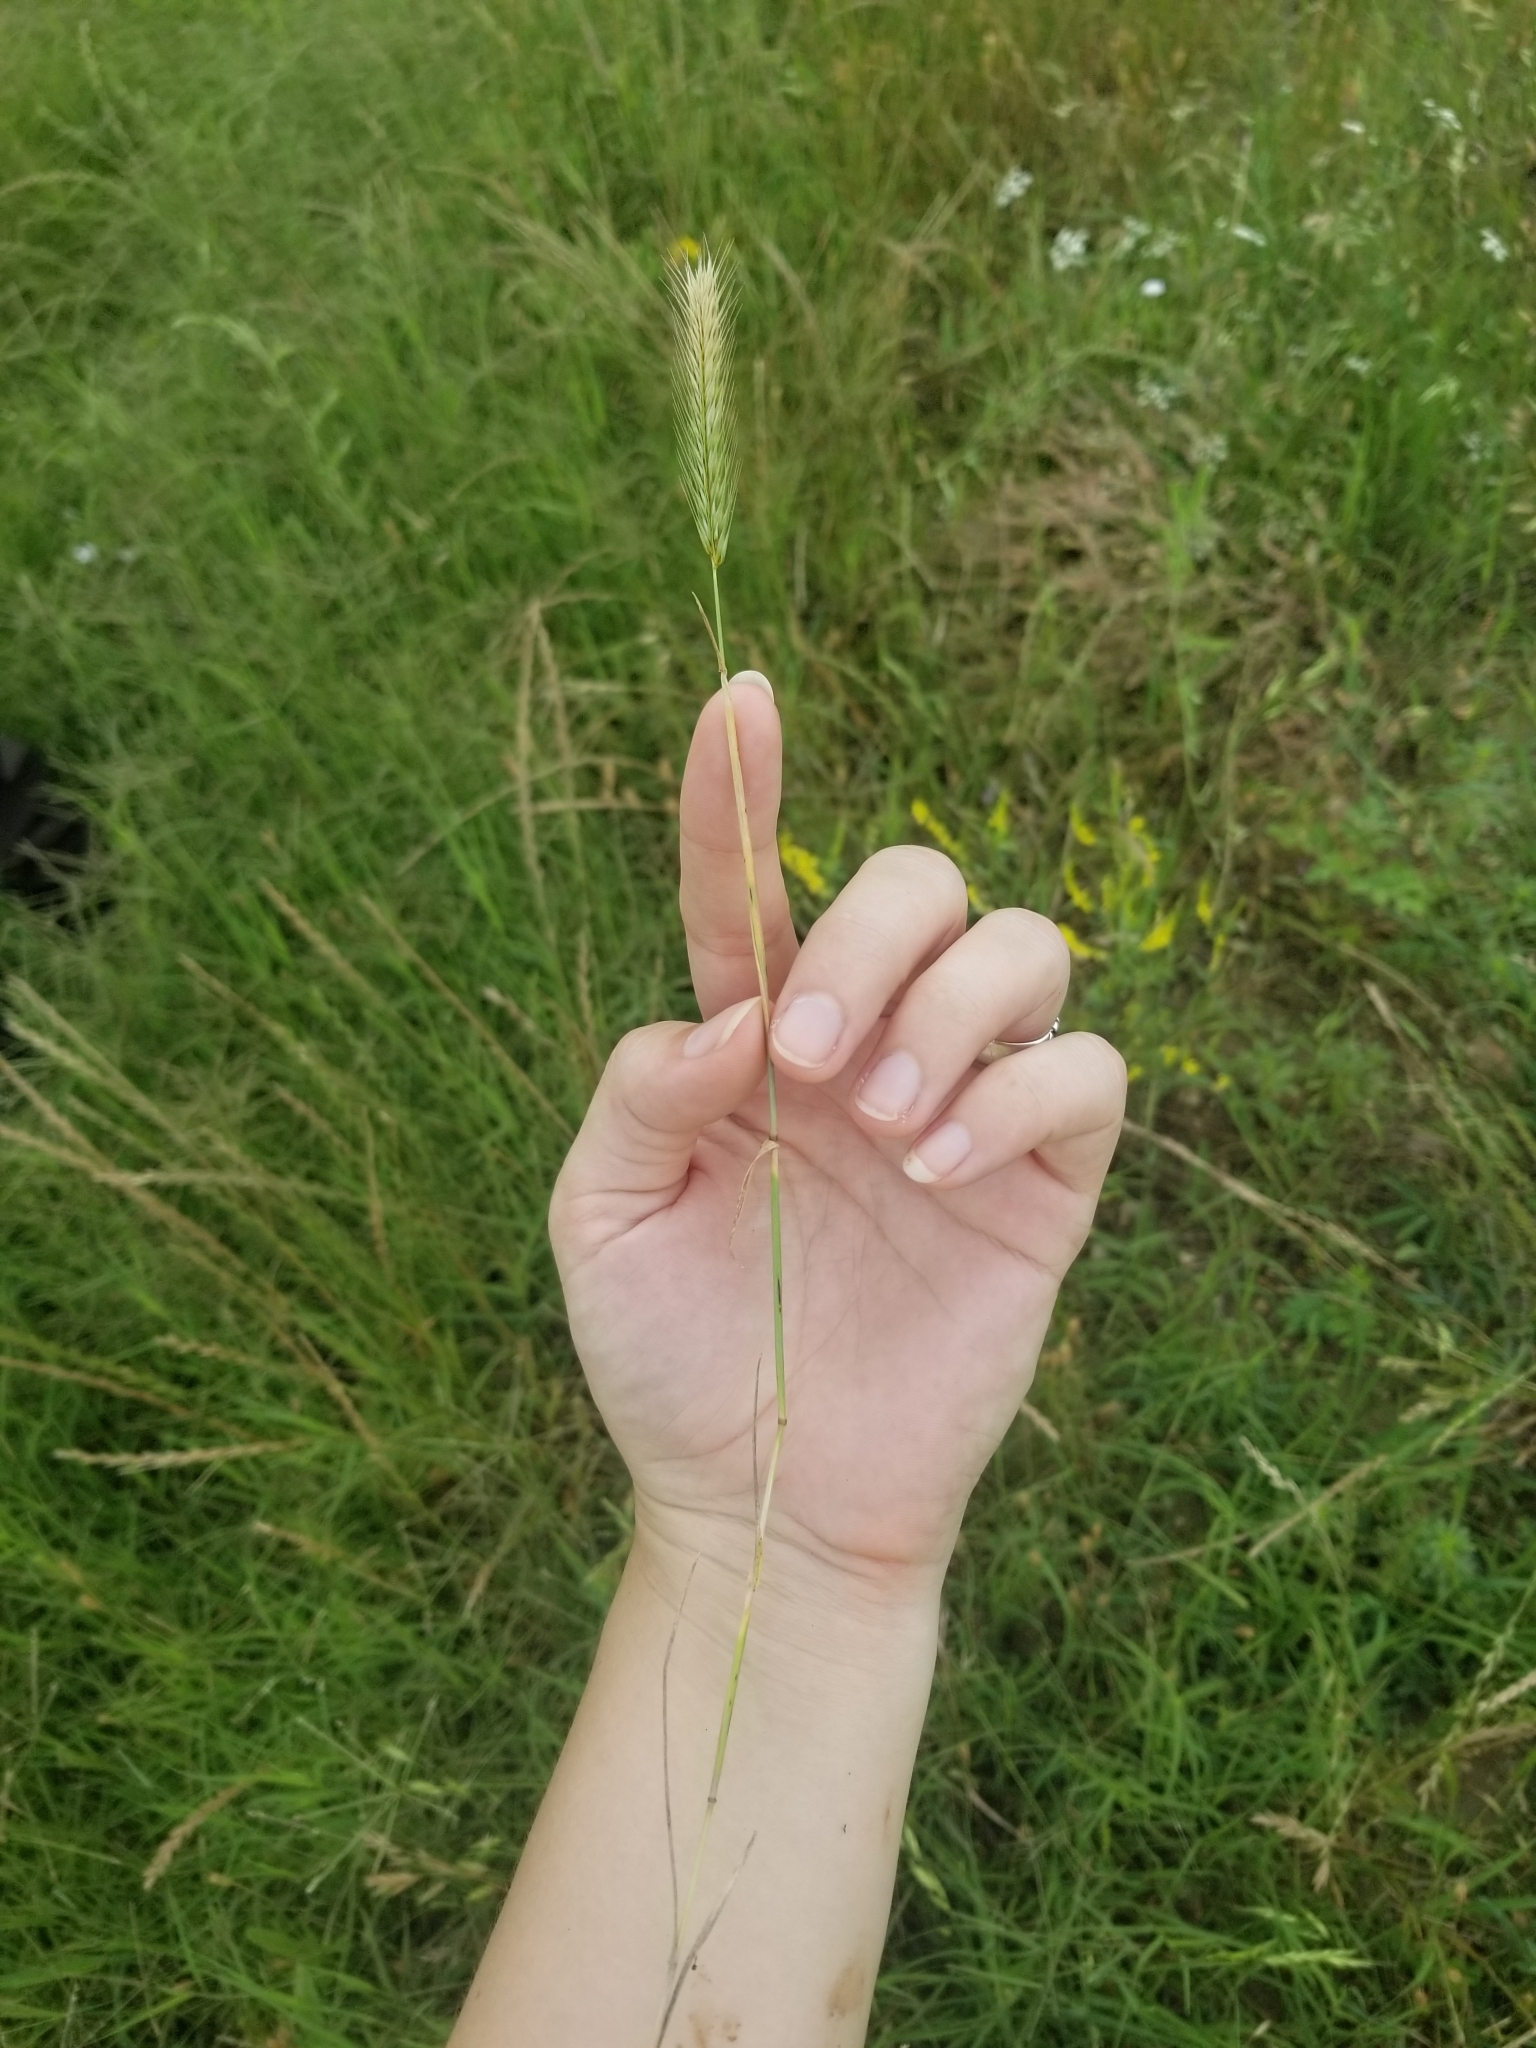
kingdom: Plantae
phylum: Tracheophyta
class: Liliopsida
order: Poales
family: Poaceae
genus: Hordeum
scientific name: Hordeum pusillum
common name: Little barley
